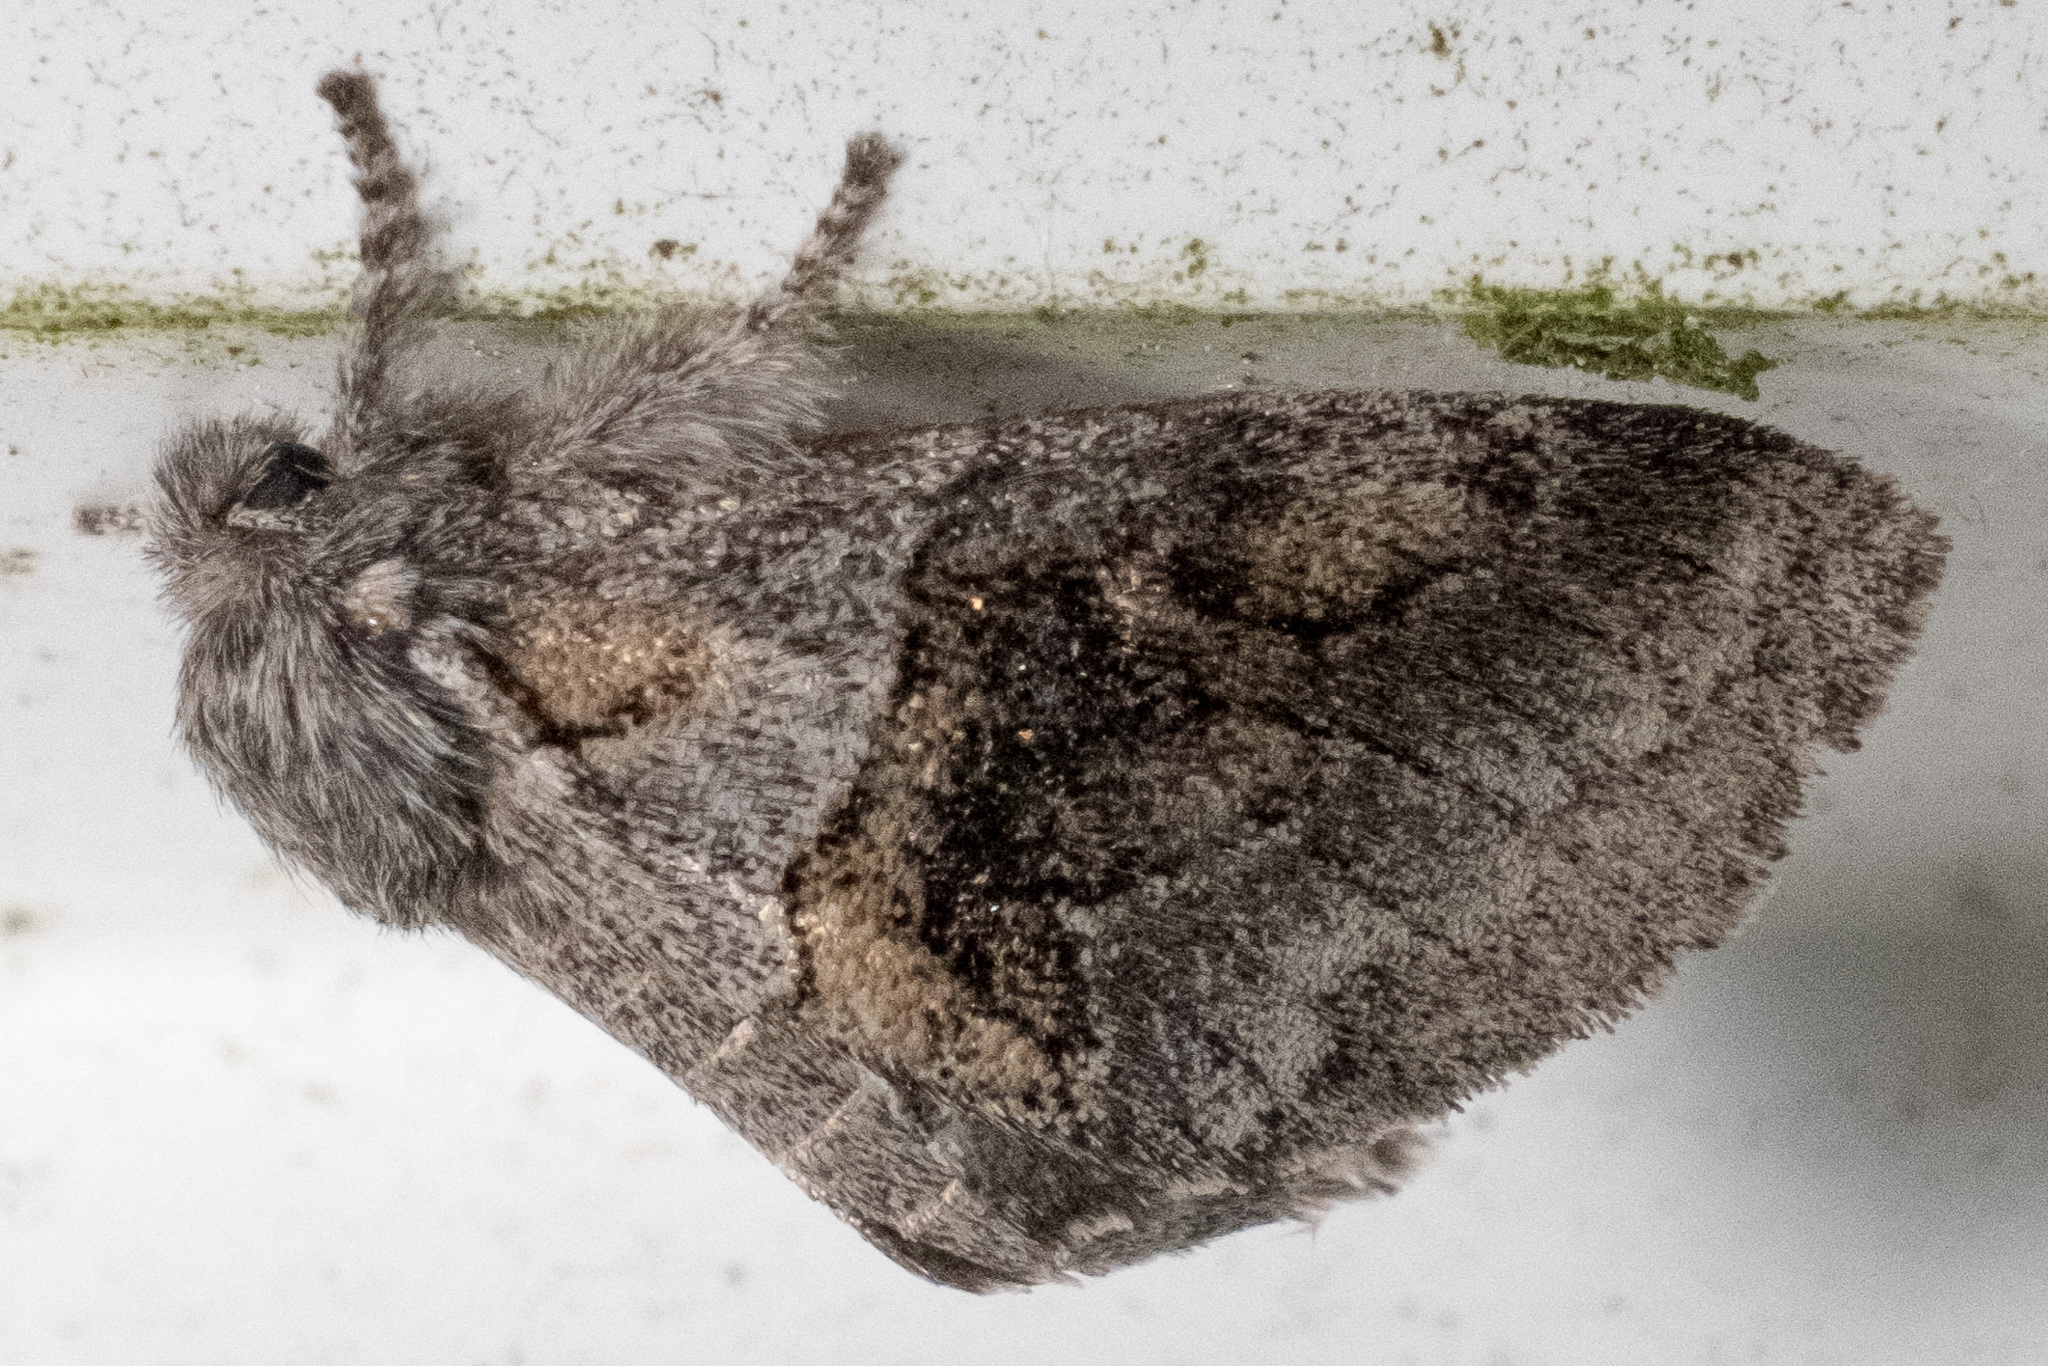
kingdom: Animalia
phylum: Arthropoda
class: Insecta
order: Lepidoptera
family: Notodontidae
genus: Gluphisia
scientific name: Gluphisia septentrionis
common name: Common gluphisia
